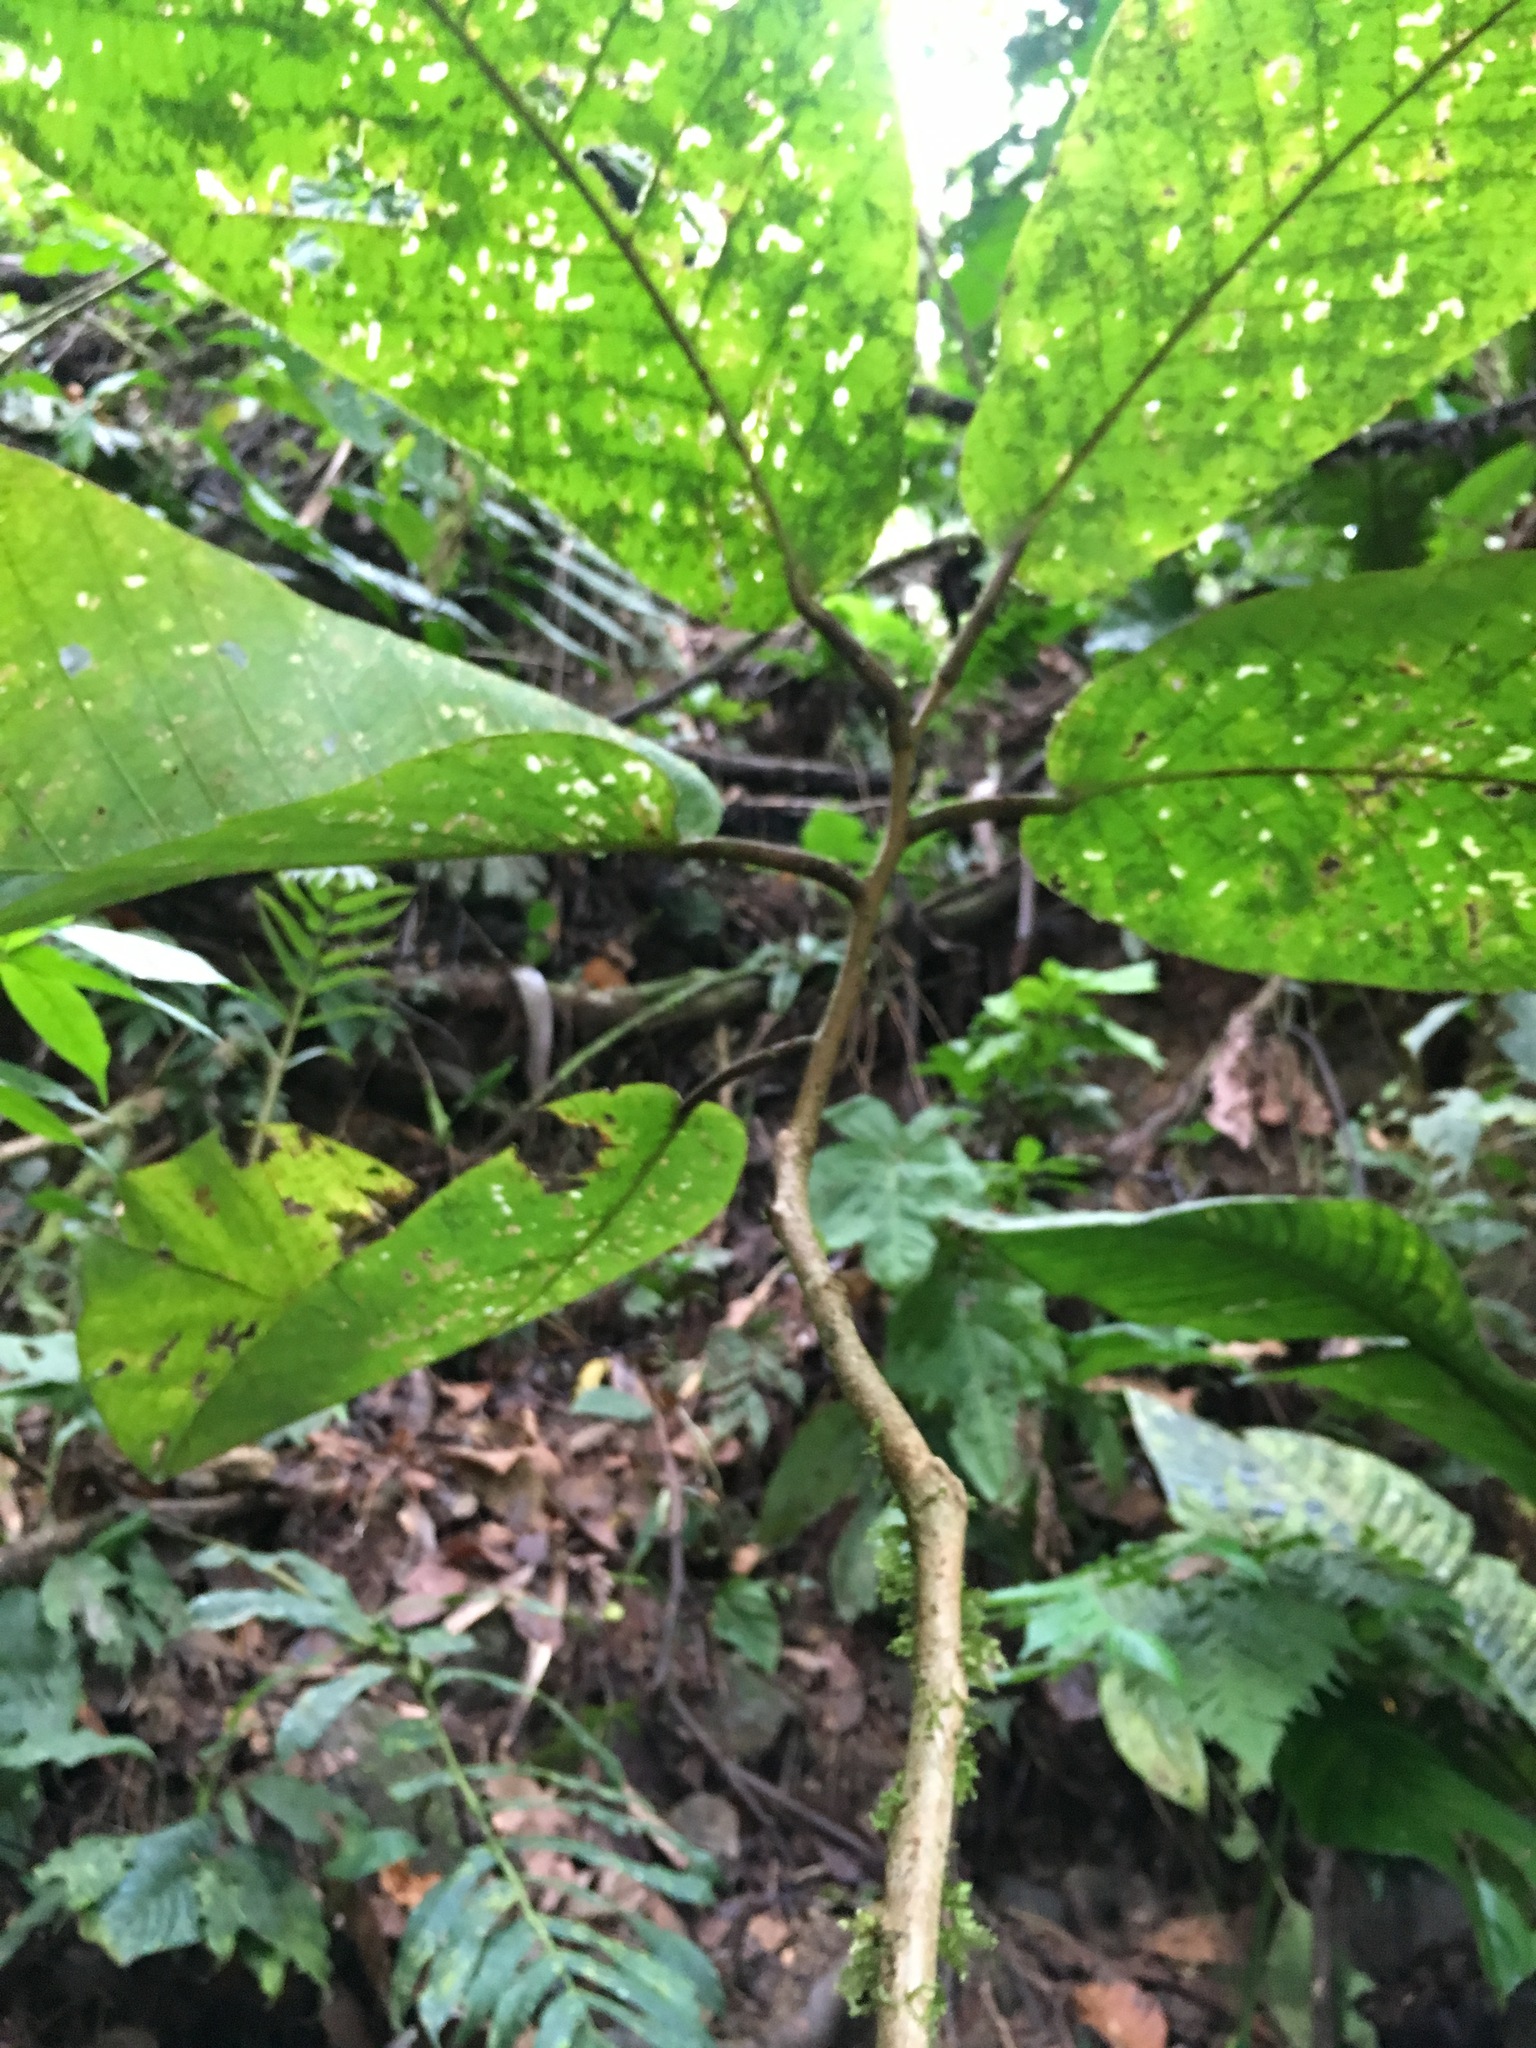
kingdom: Plantae
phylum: Tracheophyta
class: Magnoliopsida
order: Malpighiales
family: Passifloraceae
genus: Passiflora
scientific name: Passiflora macrophylla
